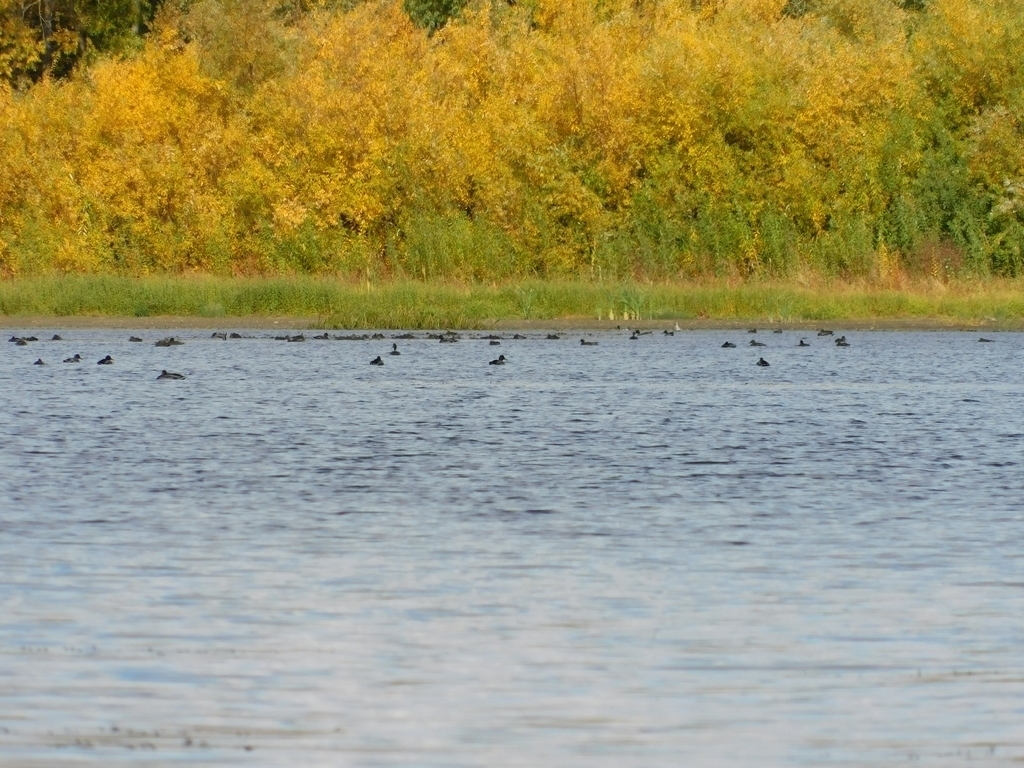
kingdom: Animalia
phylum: Chordata
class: Aves
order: Anseriformes
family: Anatidae
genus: Anas
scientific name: Anas platyrhynchos
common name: Mallard
